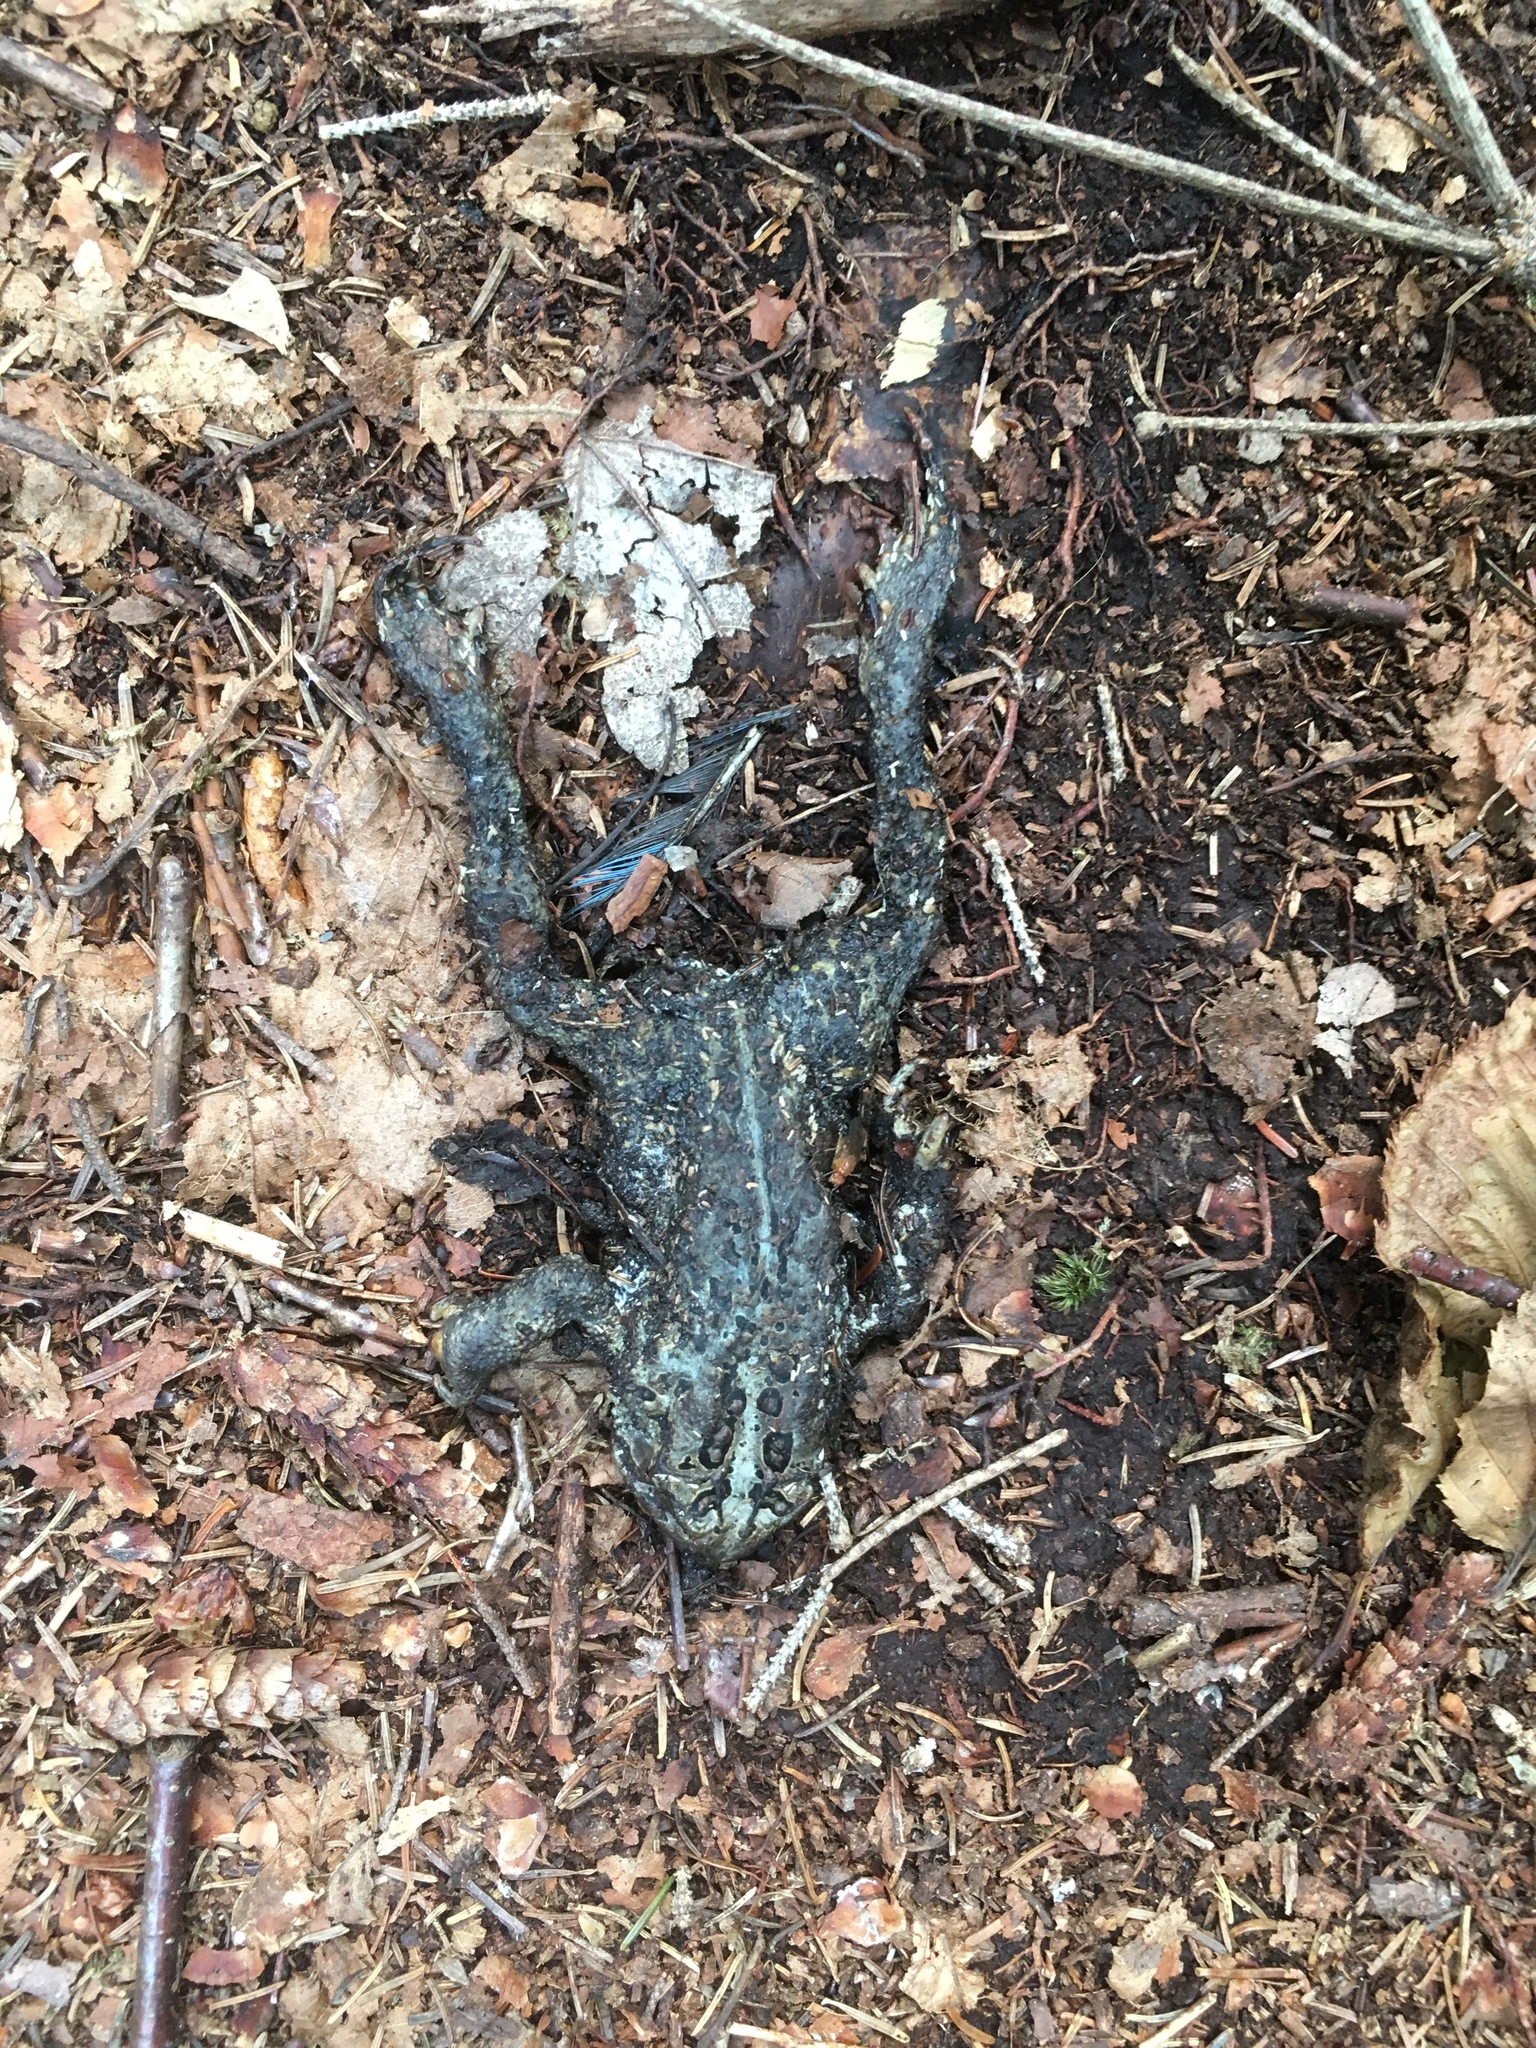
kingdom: Animalia
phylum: Chordata
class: Amphibia
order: Anura
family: Bufonidae
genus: Anaxyrus
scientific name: Anaxyrus americanus
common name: American toad
